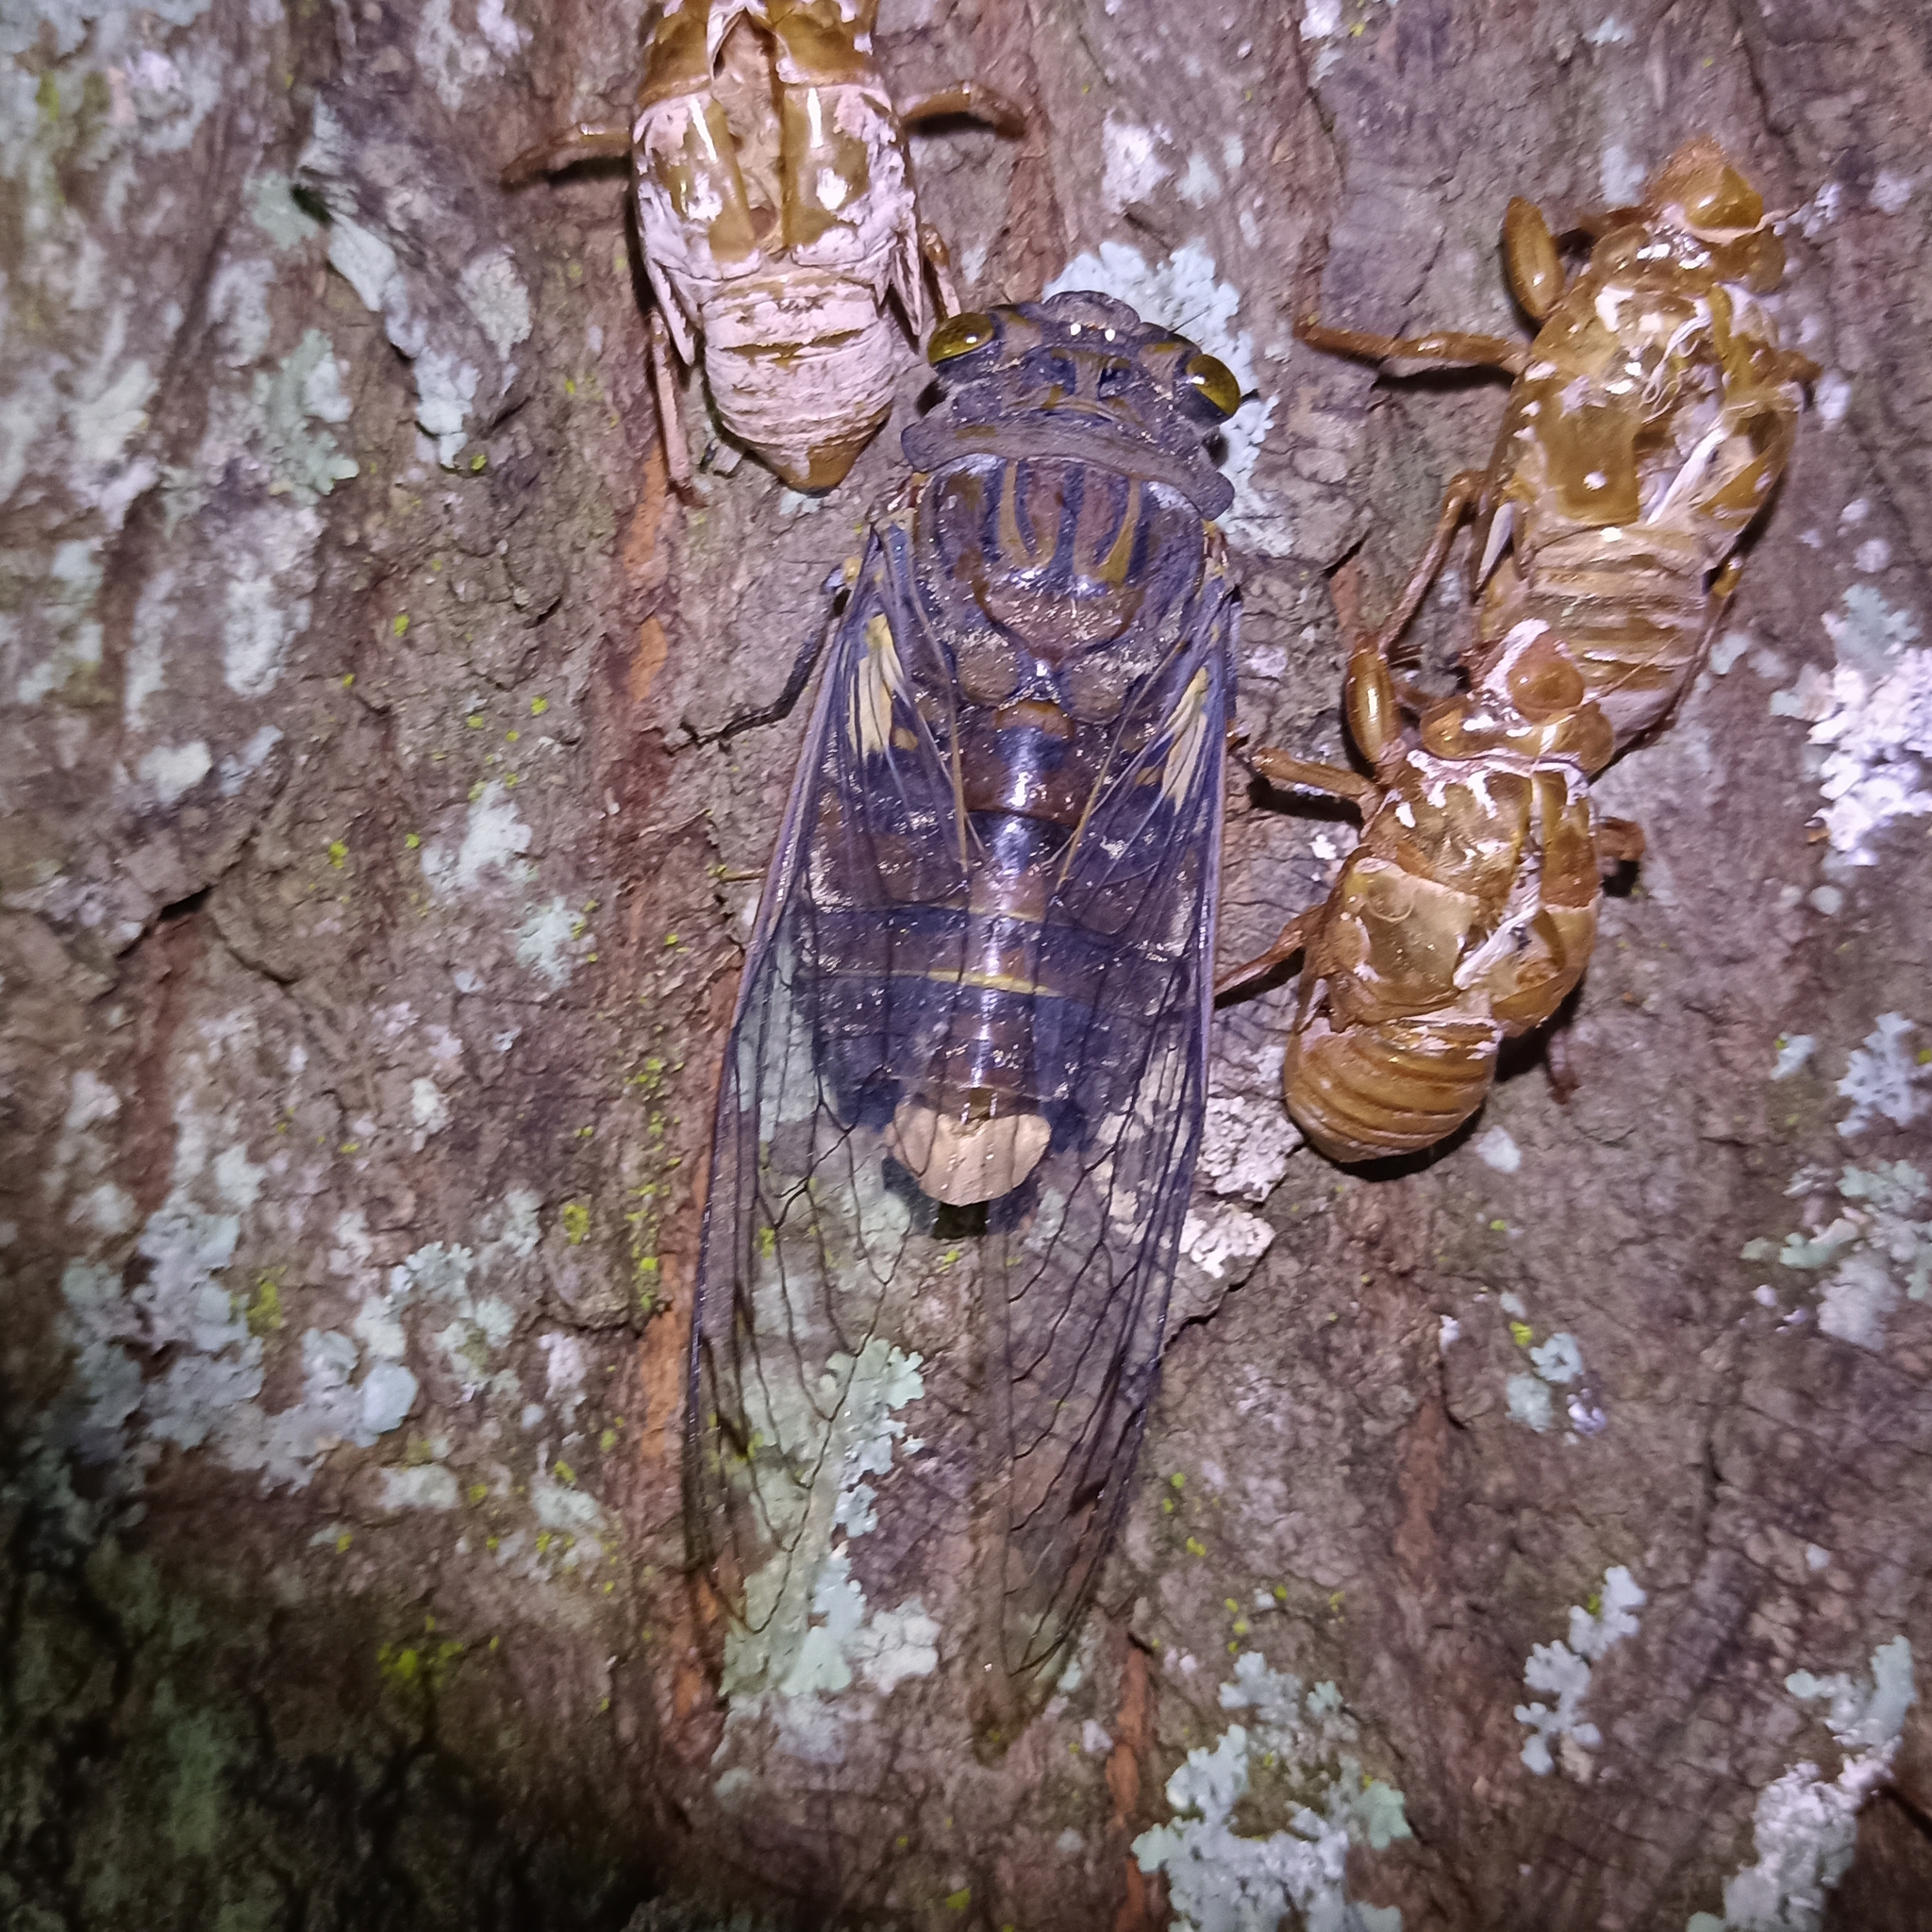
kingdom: Animalia
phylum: Arthropoda
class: Insecta
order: Hemiptera
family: Cicadidae
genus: Quesada
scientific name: Quesada gigas
